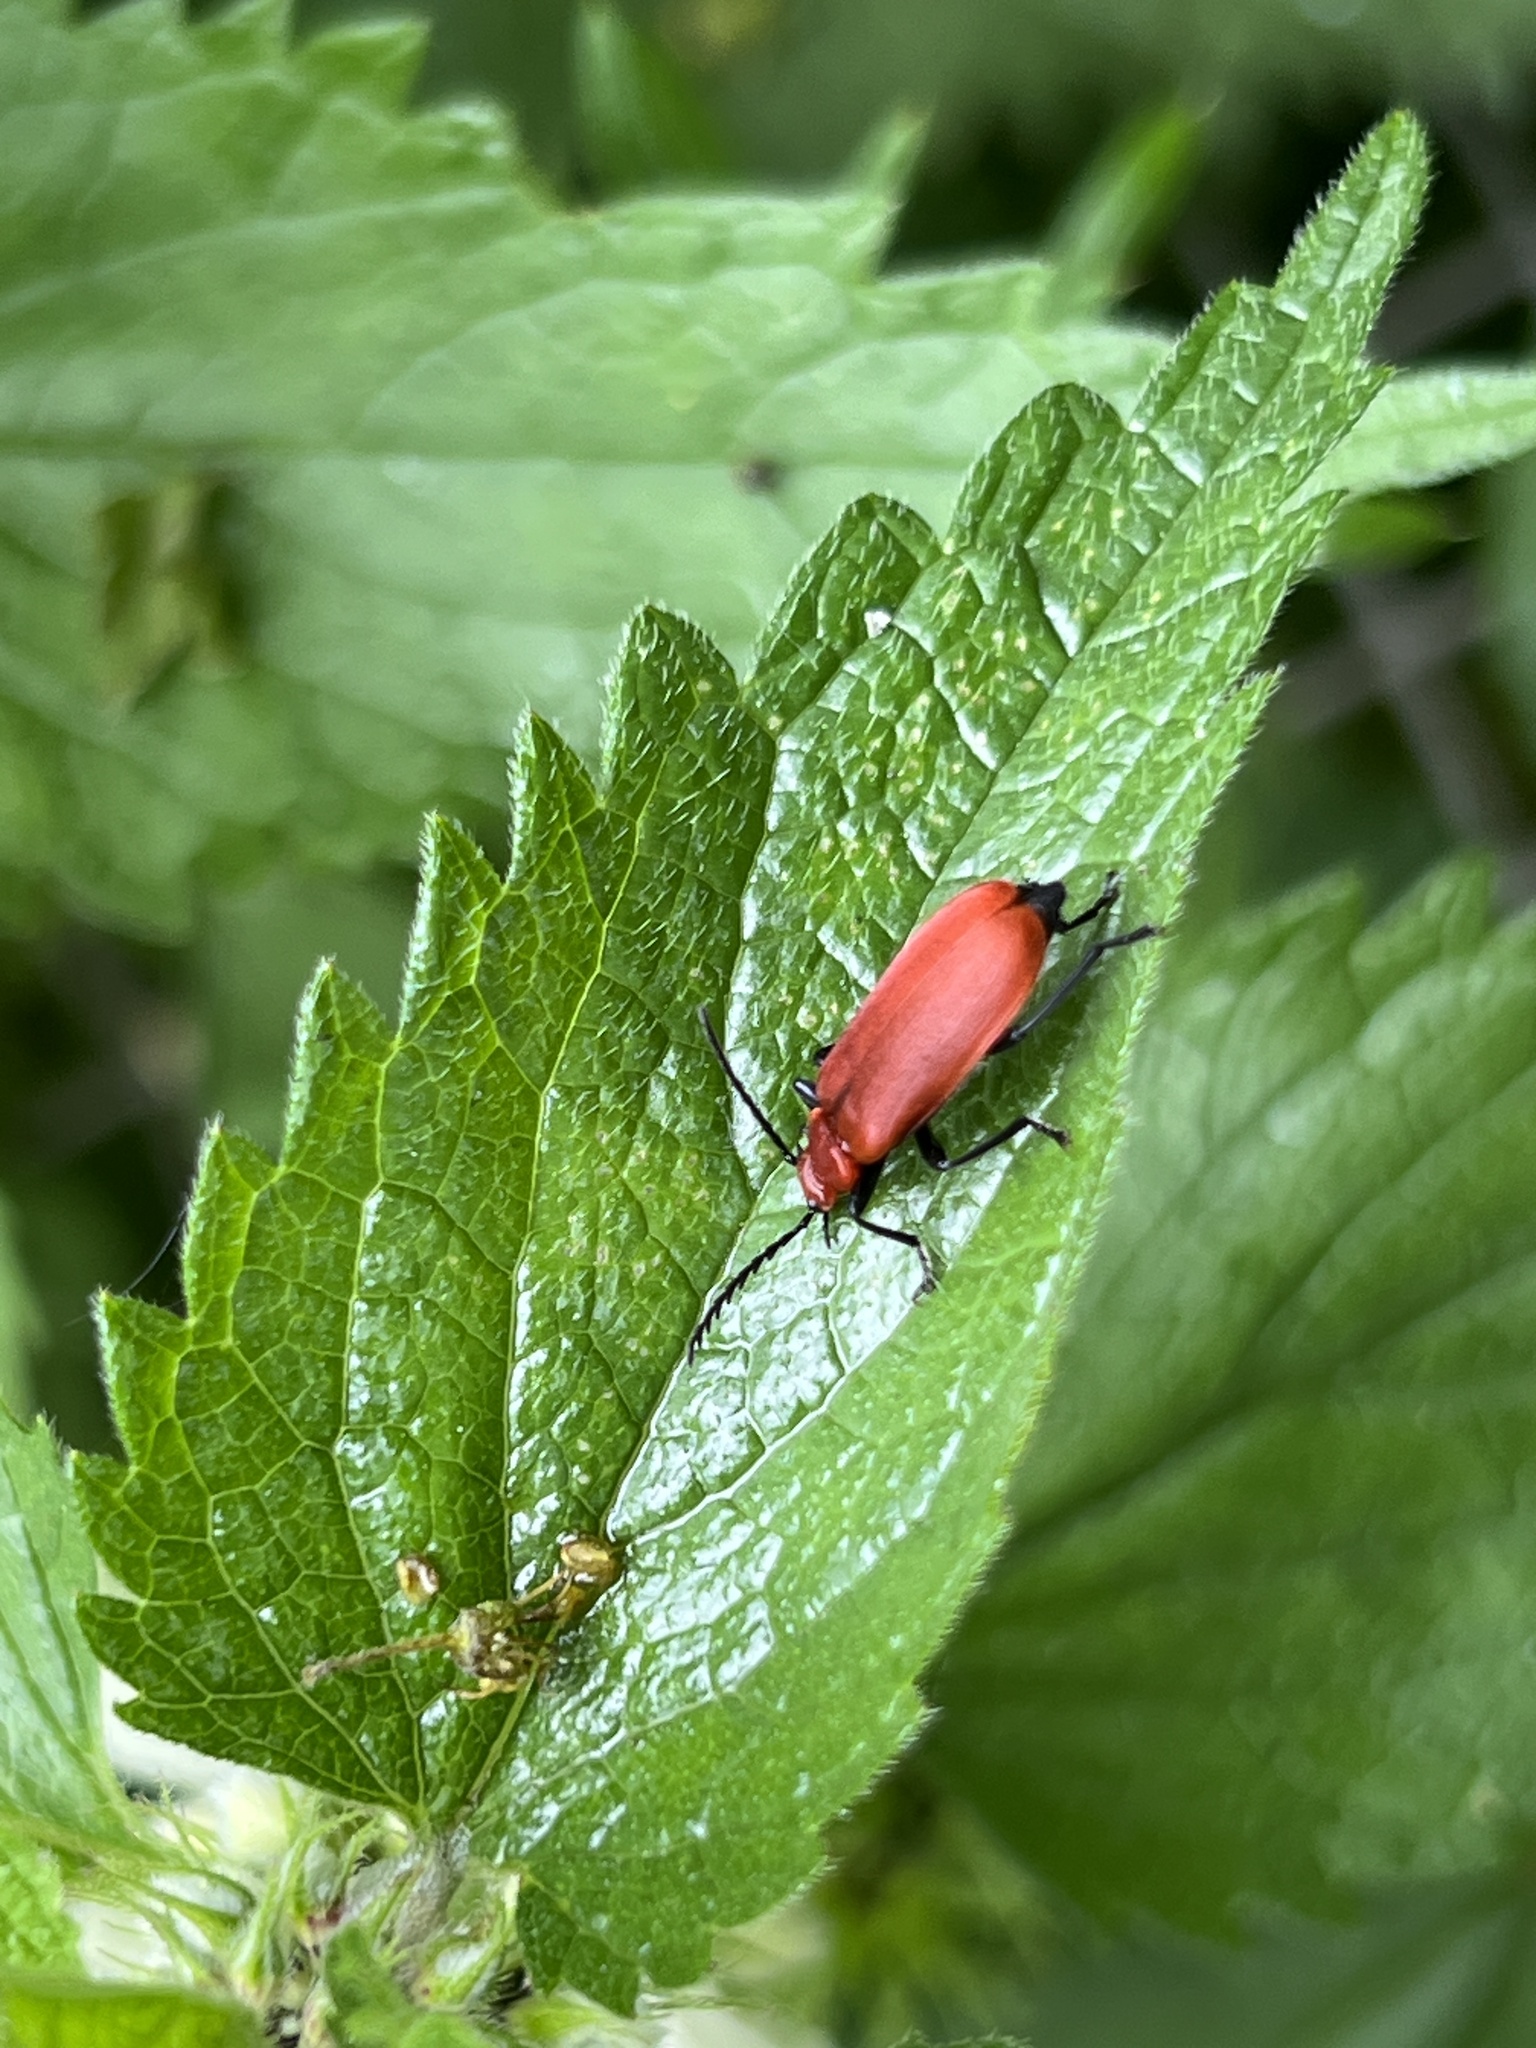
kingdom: Animalia
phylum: Arthropoda
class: Insecta
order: Coleoptera
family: Pyrochroidae
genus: Pyrochroa
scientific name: Pyrochroa serraticornis
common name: Red-headed cardinal beetle
